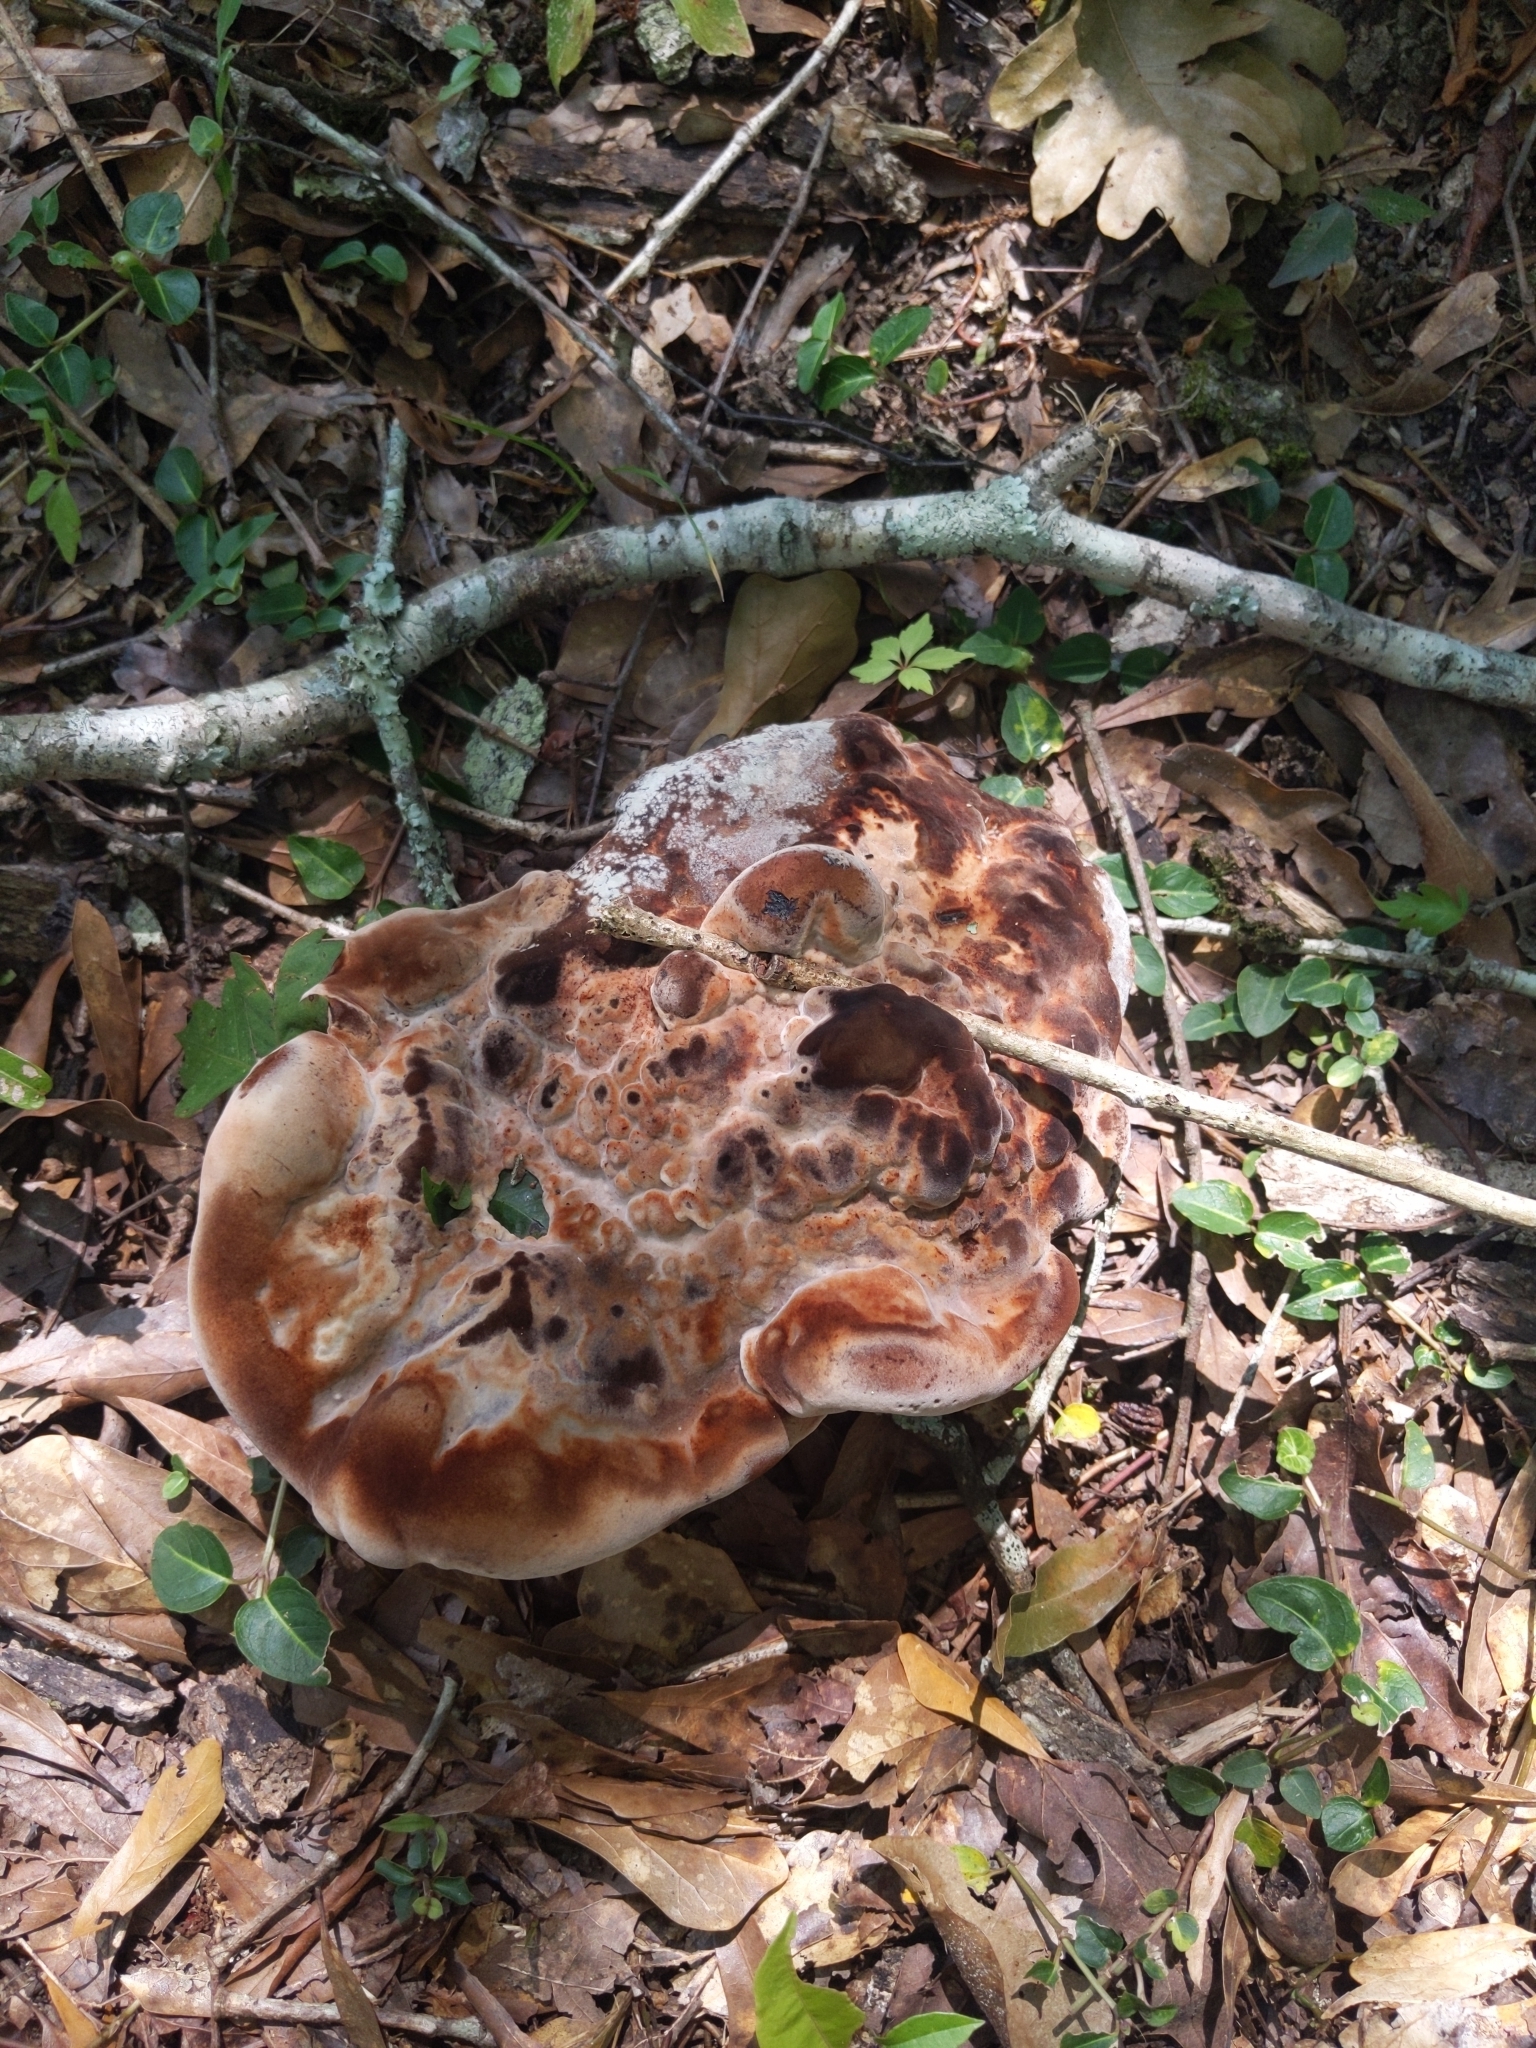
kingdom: Fungi
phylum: Basidiomycota
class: Agaricomycetes
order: Polyporales
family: Laetiporaceae
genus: Berkcurtia
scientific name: Berkcurtia persicina
